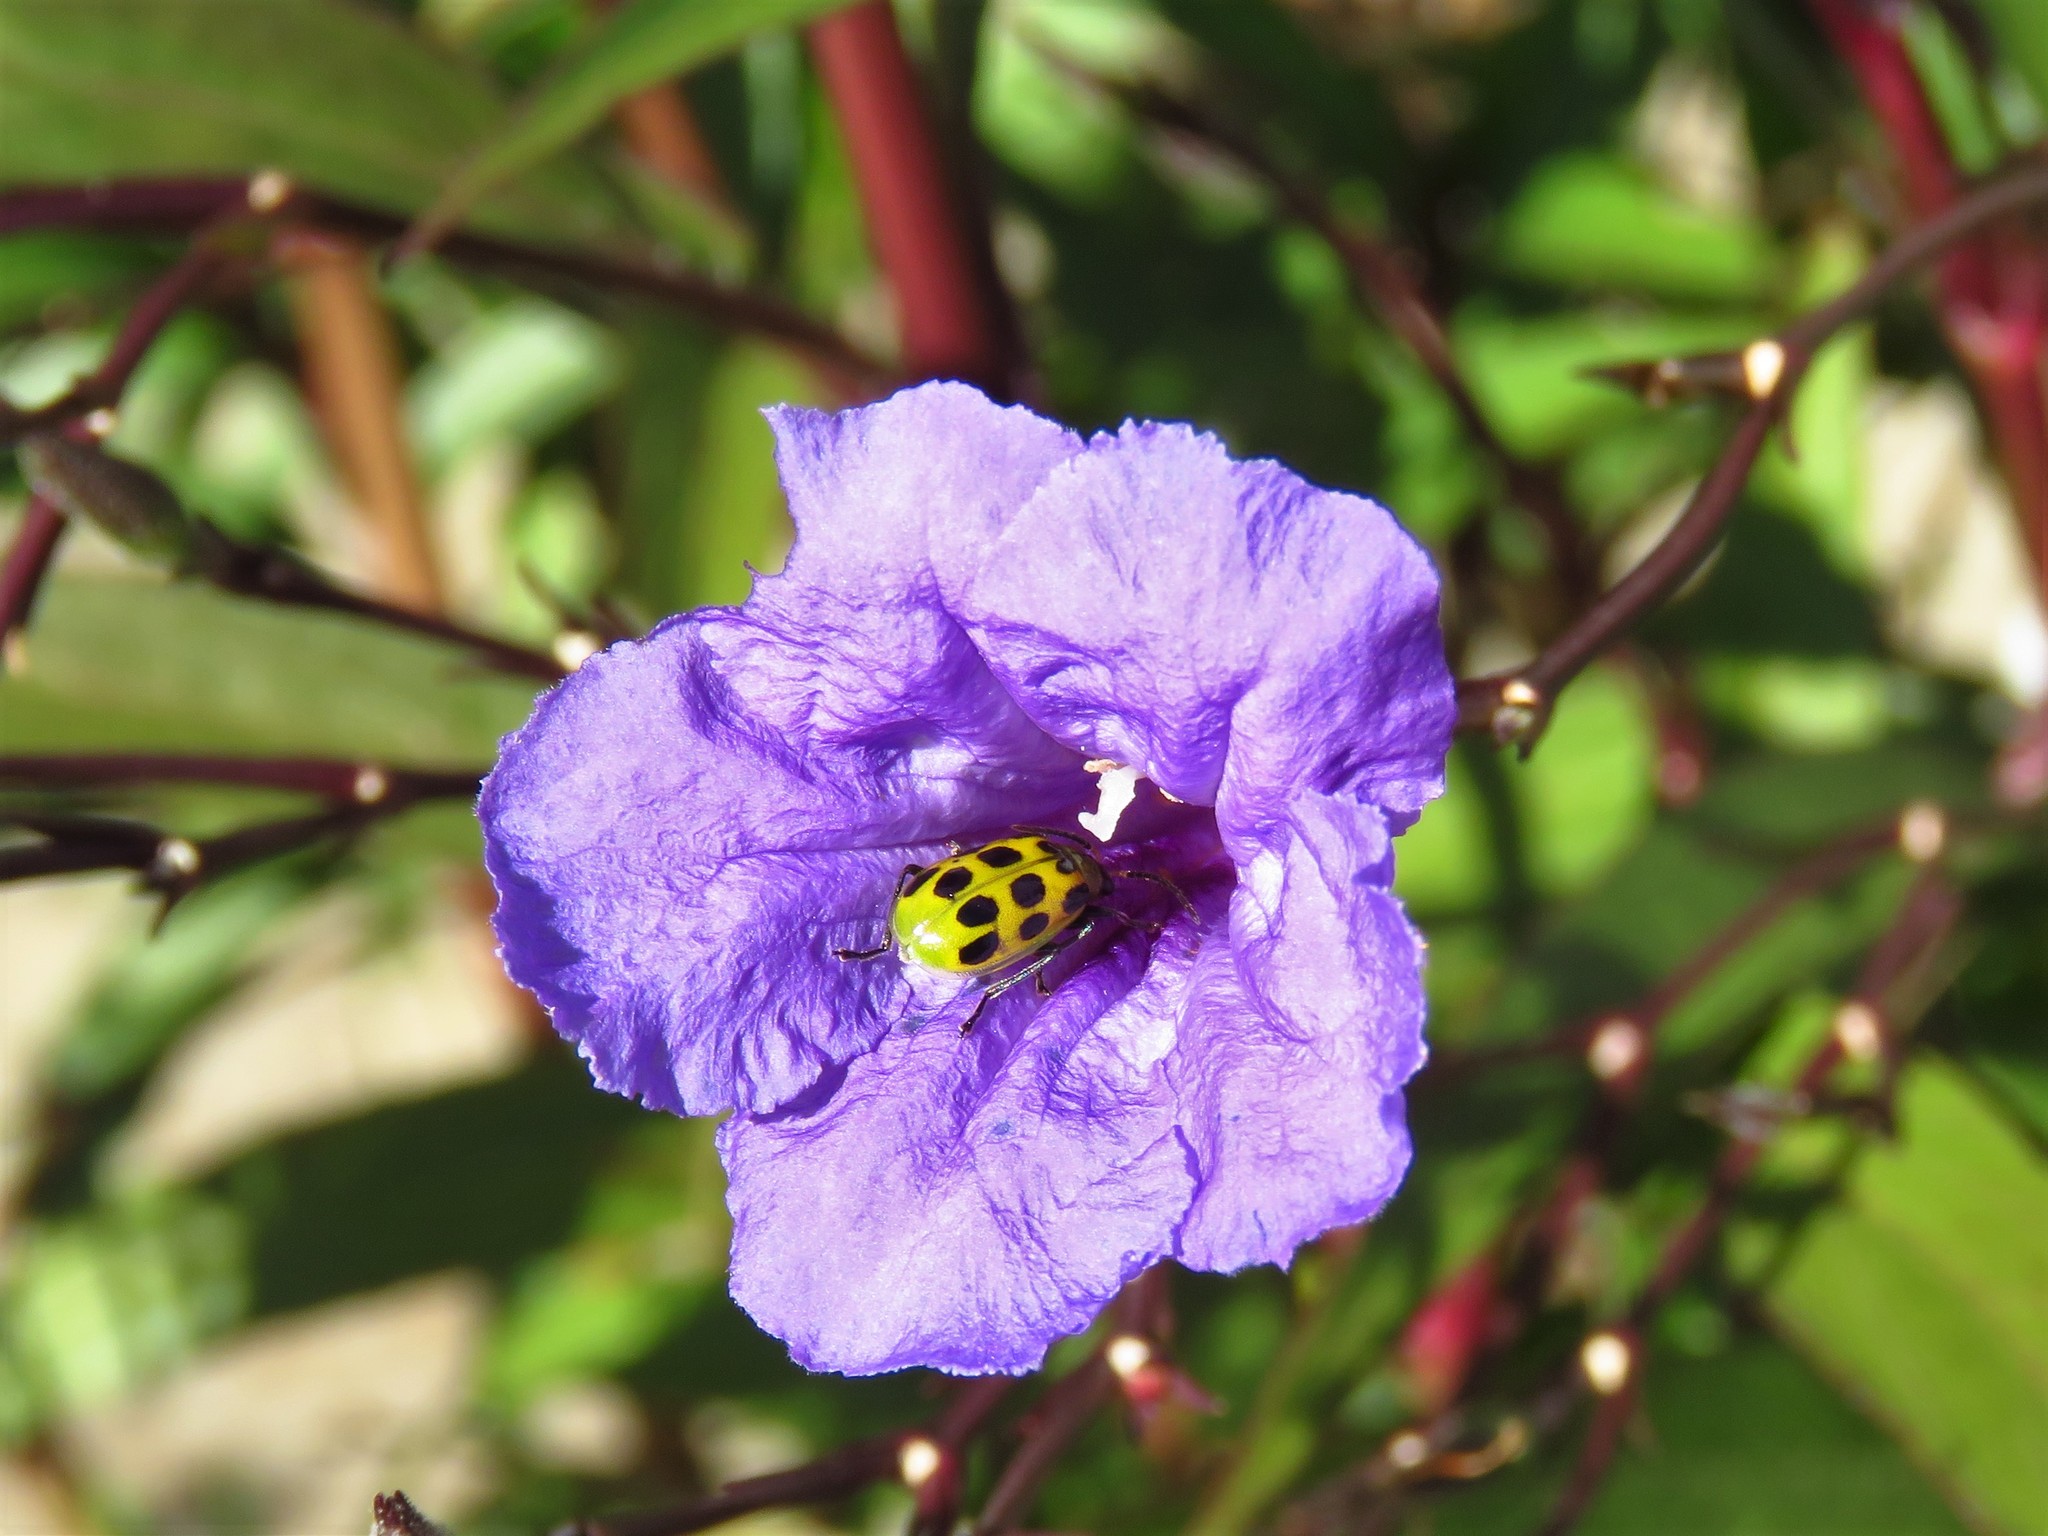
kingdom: Animalia
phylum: Arthropoda
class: Insecta
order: Coleoptera
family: Chrysomelidae
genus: Diabrotica
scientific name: Diabrotica undecimpunctata
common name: Spotted cucumber beetle
